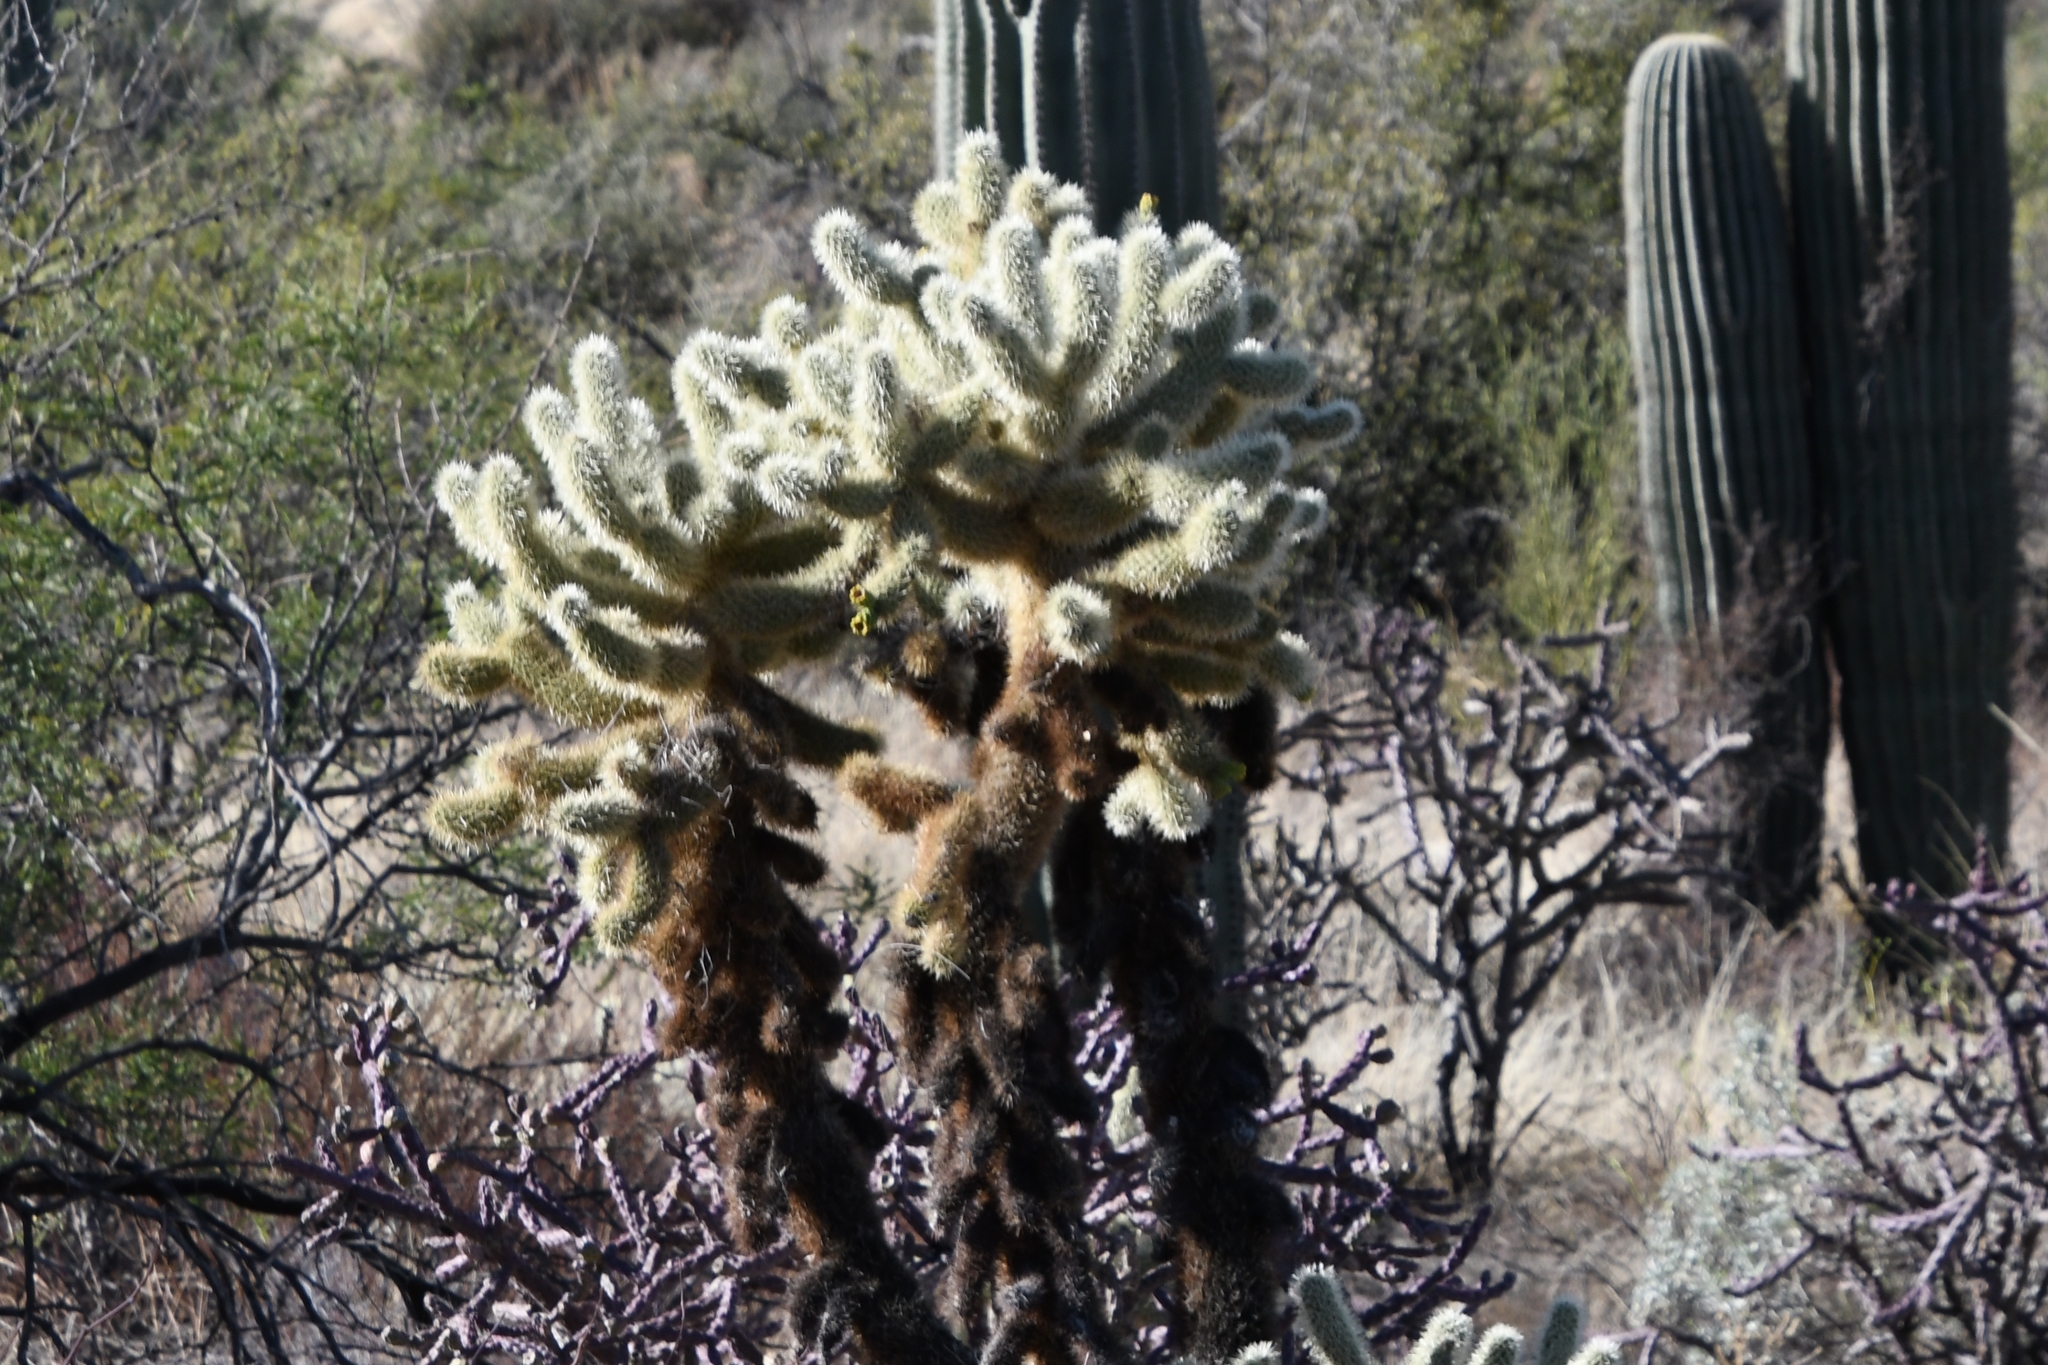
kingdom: Plantae
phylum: Tracheophyta
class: Magnoliopsida
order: Caryophyllales
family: Cactaceae
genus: Cylindropuntia
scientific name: Cylindropuntia fosbergii
